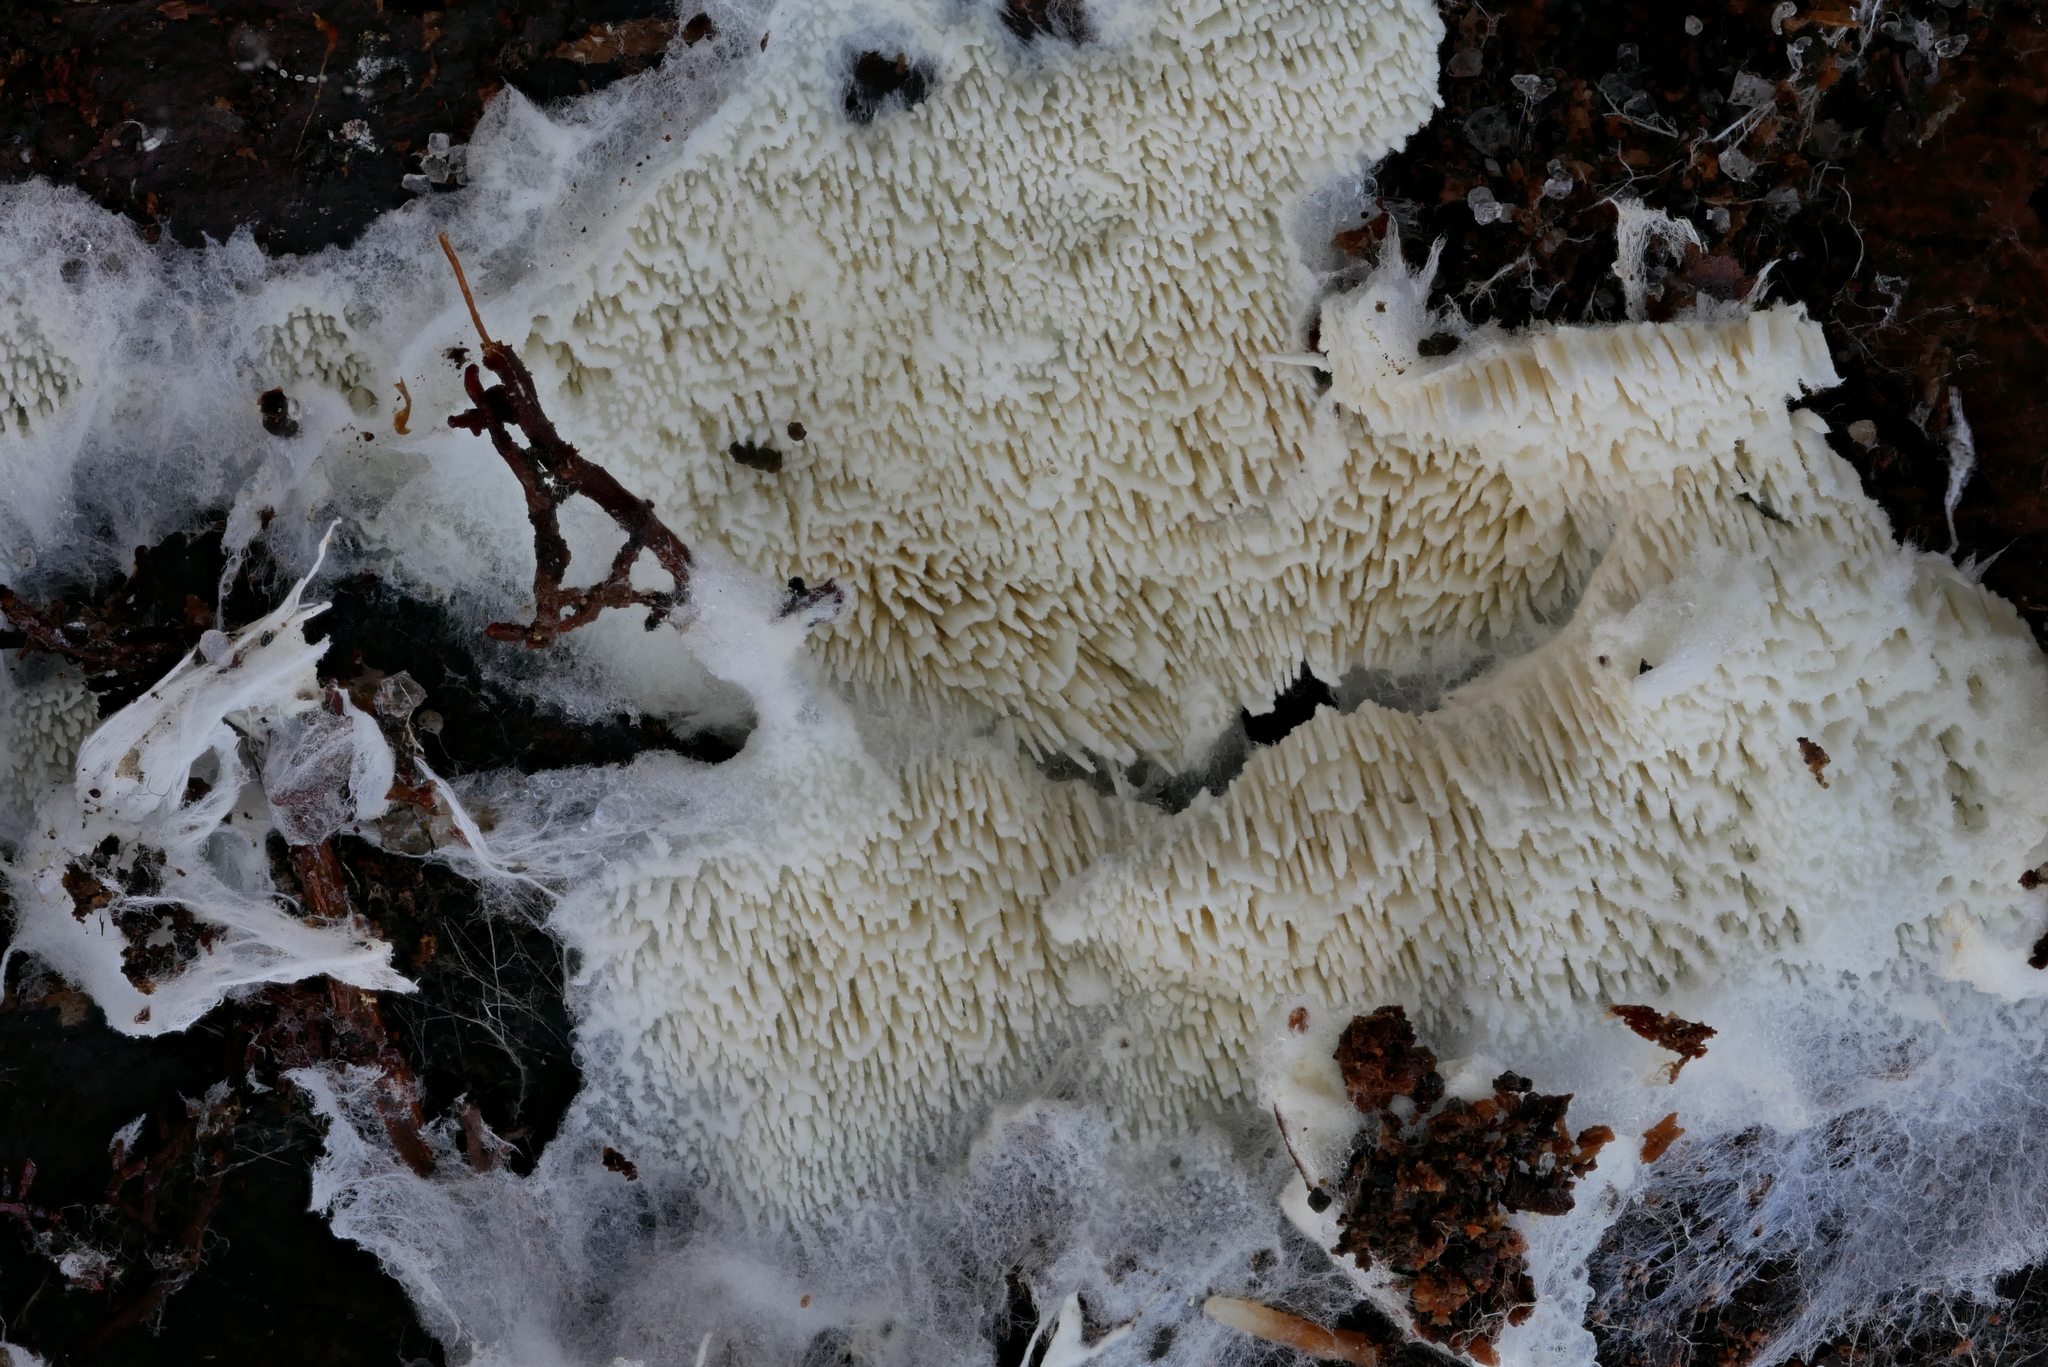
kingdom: Fungi
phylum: Basidiomycota
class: Agaricomycetes
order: Trechisporales
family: Sistotremataceae
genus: Trechispora
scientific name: Trechispora mollusca
